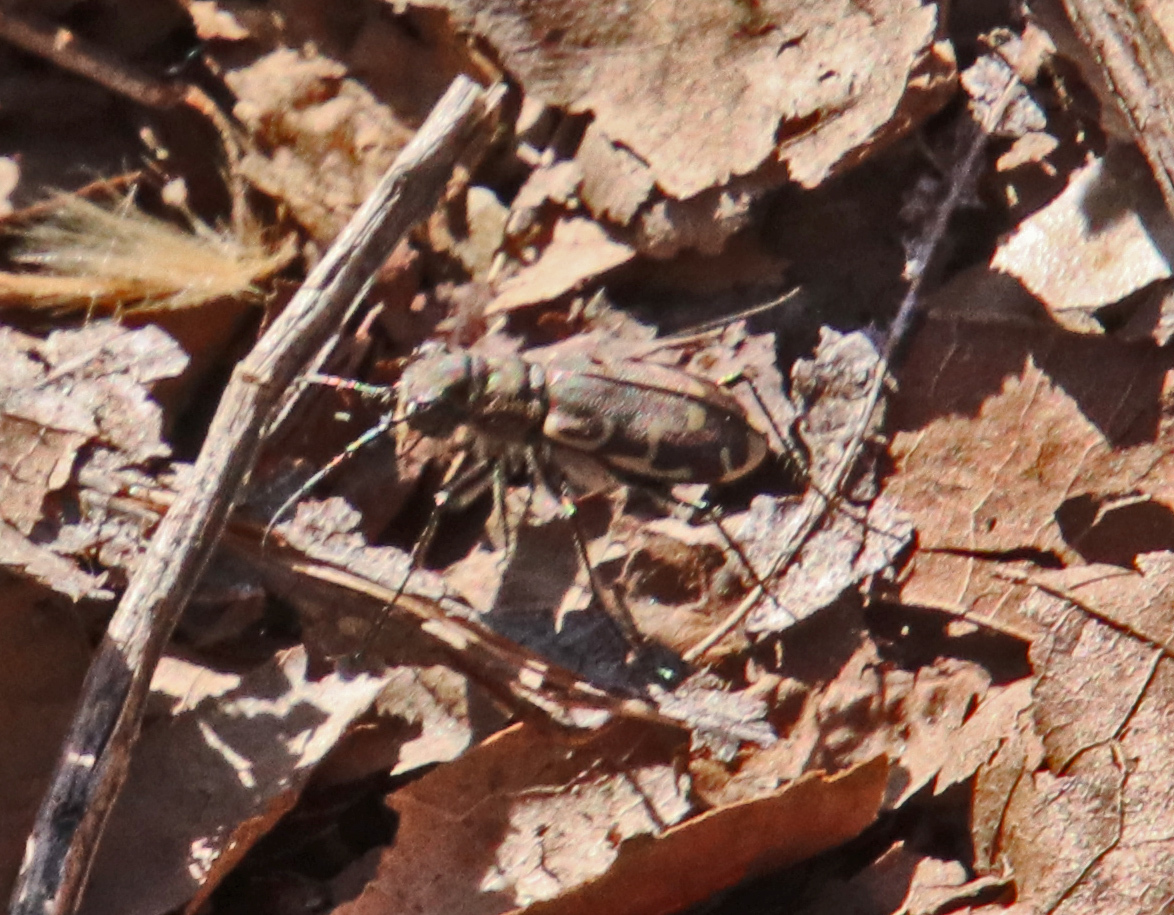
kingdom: Animalia
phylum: Arthropoda
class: Insecta
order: Coleoptera
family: Carabidae
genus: Cicindela
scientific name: Cicindela repanda
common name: Bronzed tiger beetle
